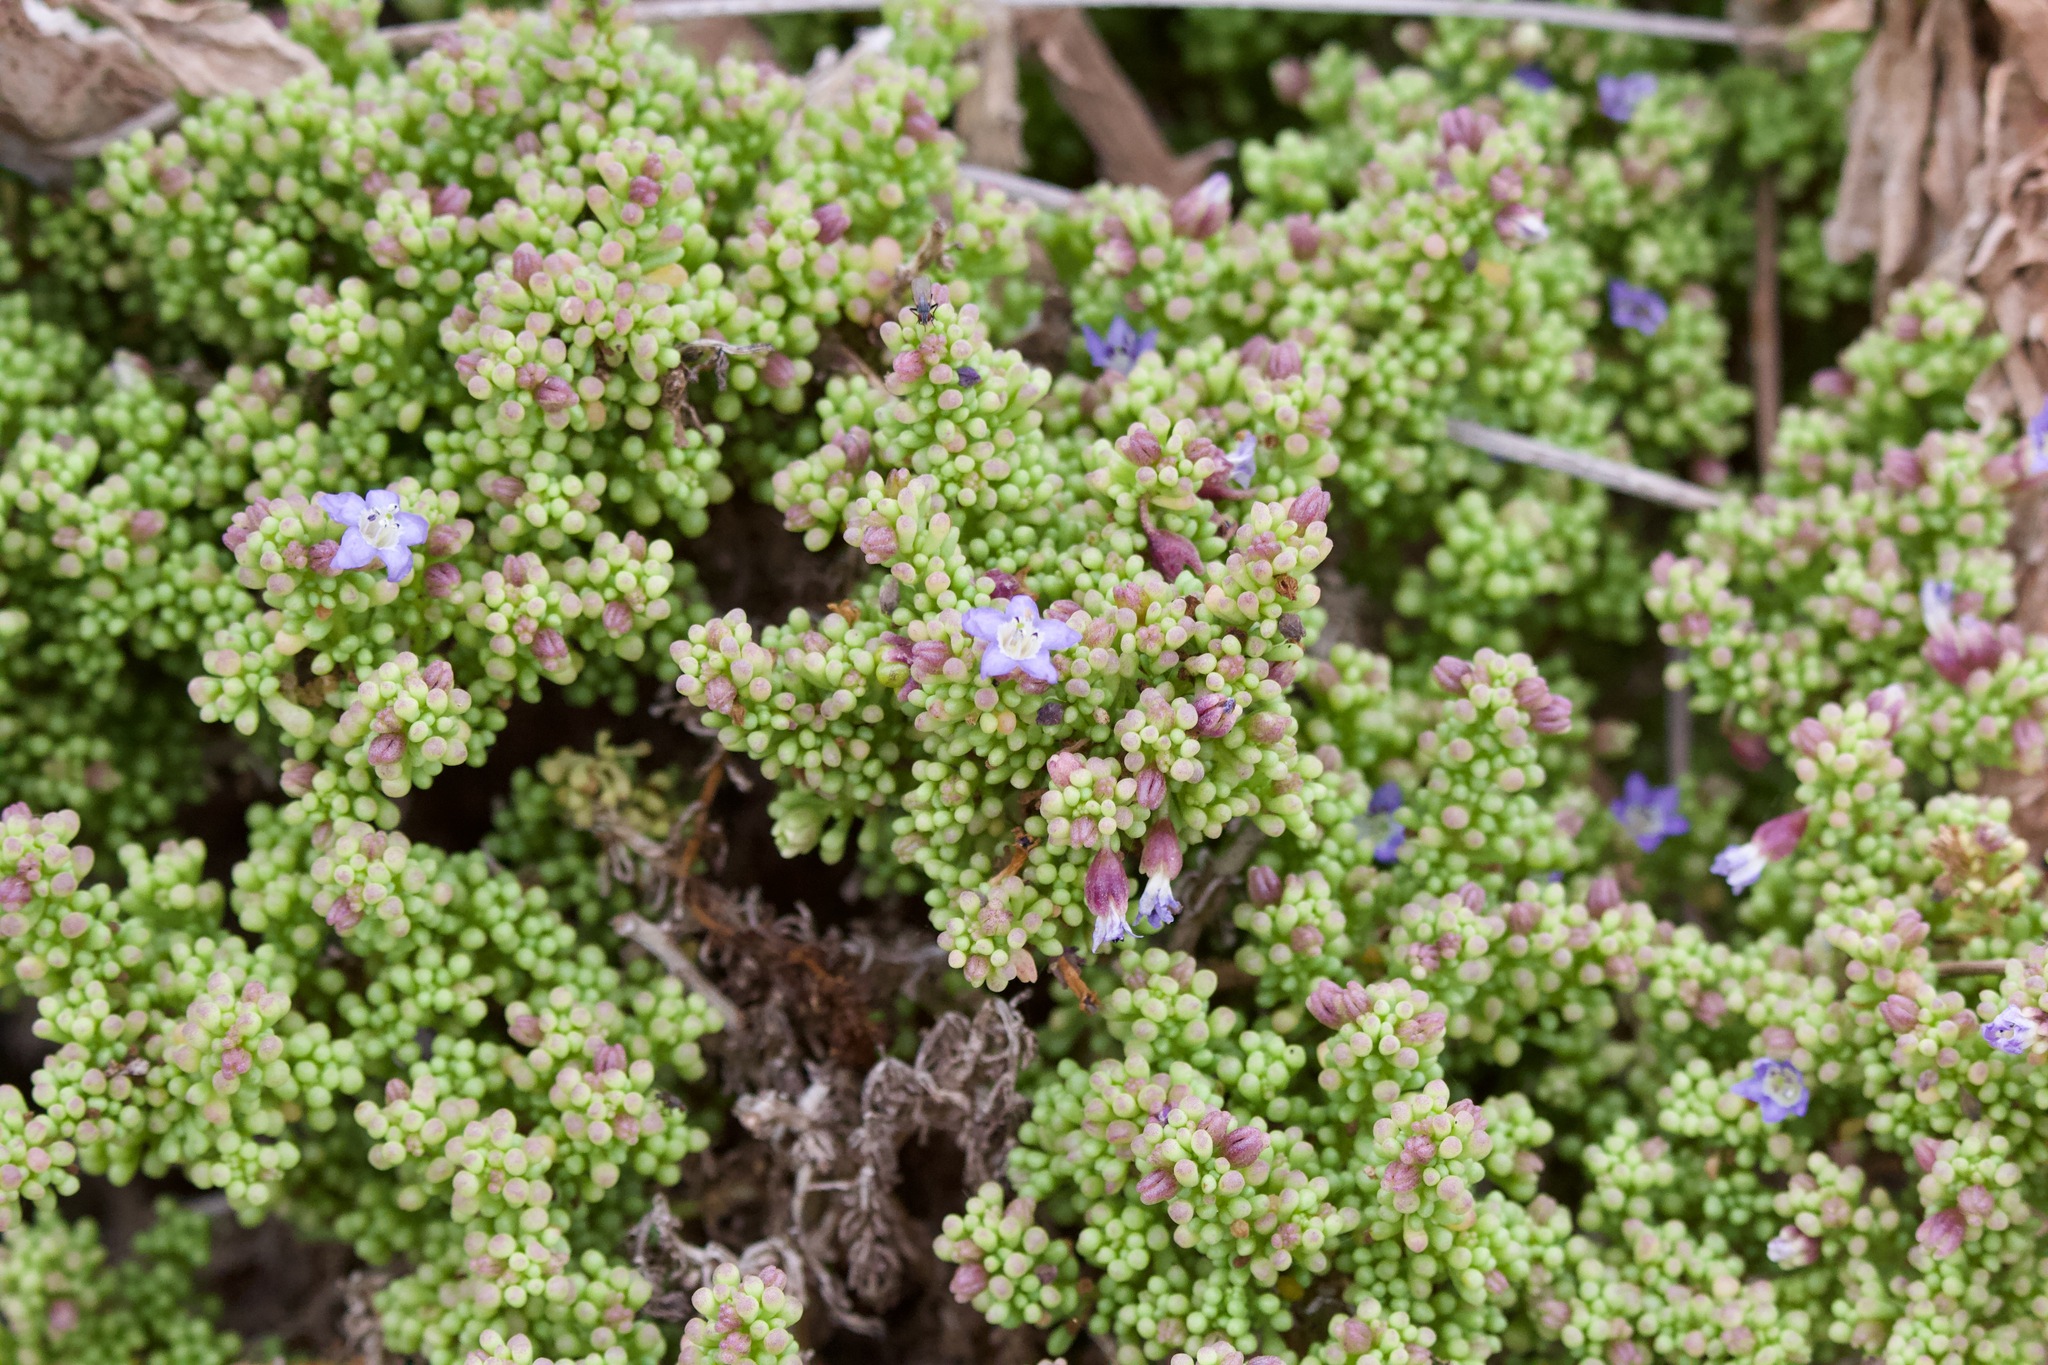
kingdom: Plantae
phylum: Tracheophyta
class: Magnoliopsida
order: Solanales
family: Solanaceae
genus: Nolana
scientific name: Nolana divaricata
